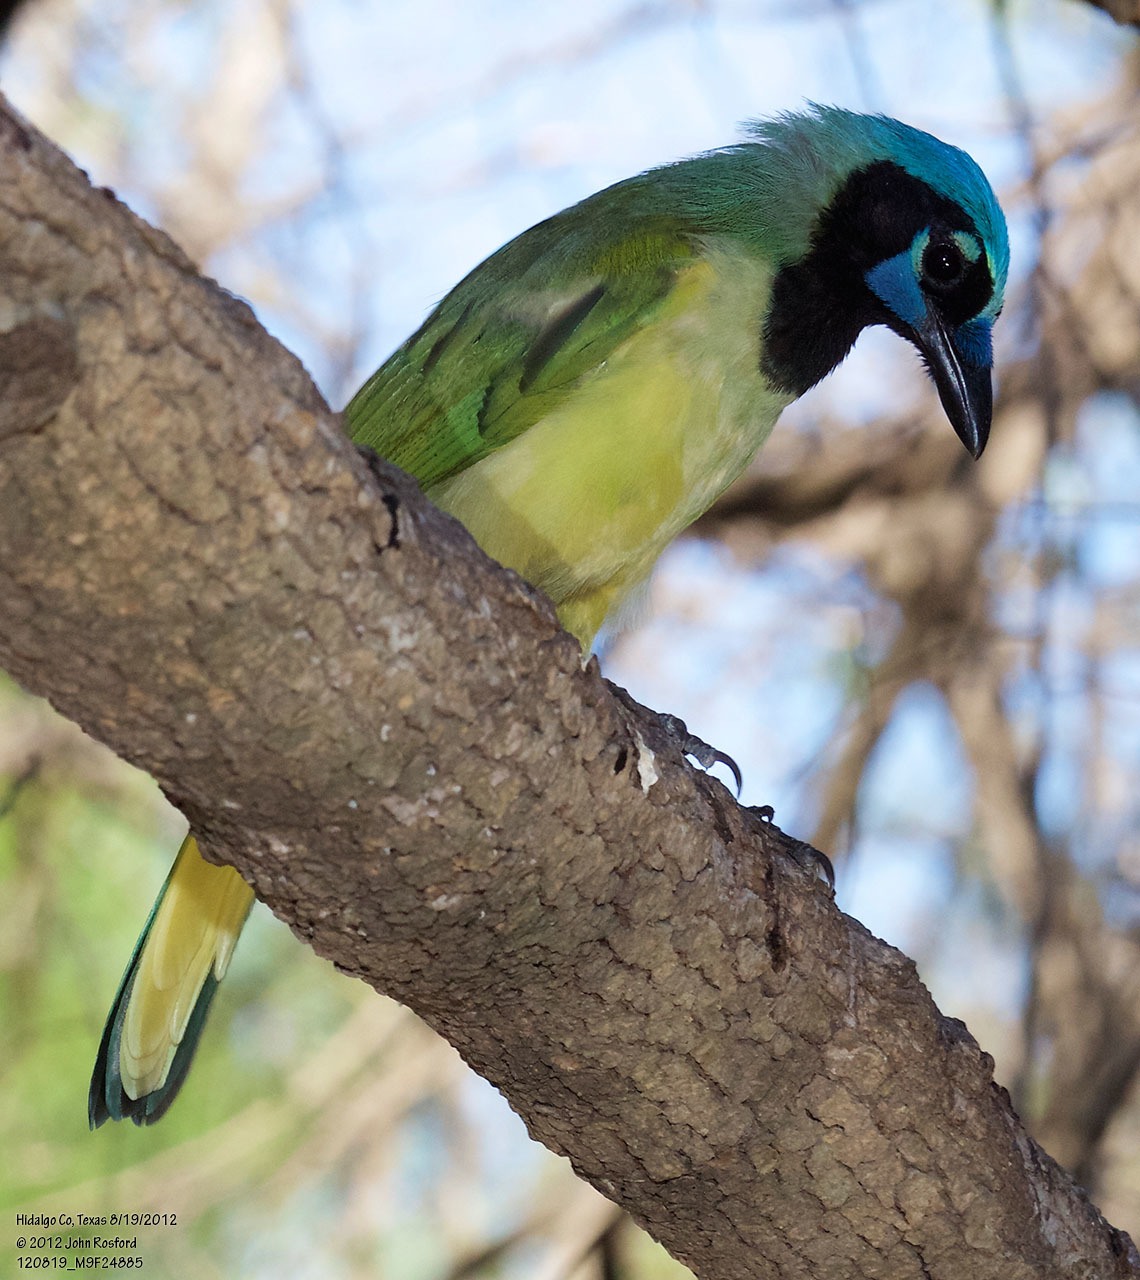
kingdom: Animalia
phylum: Chordata
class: Aves
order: Passeriformes
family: Corvidae
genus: Cyanocorax
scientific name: Cyanocorax yncas
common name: Green jay
